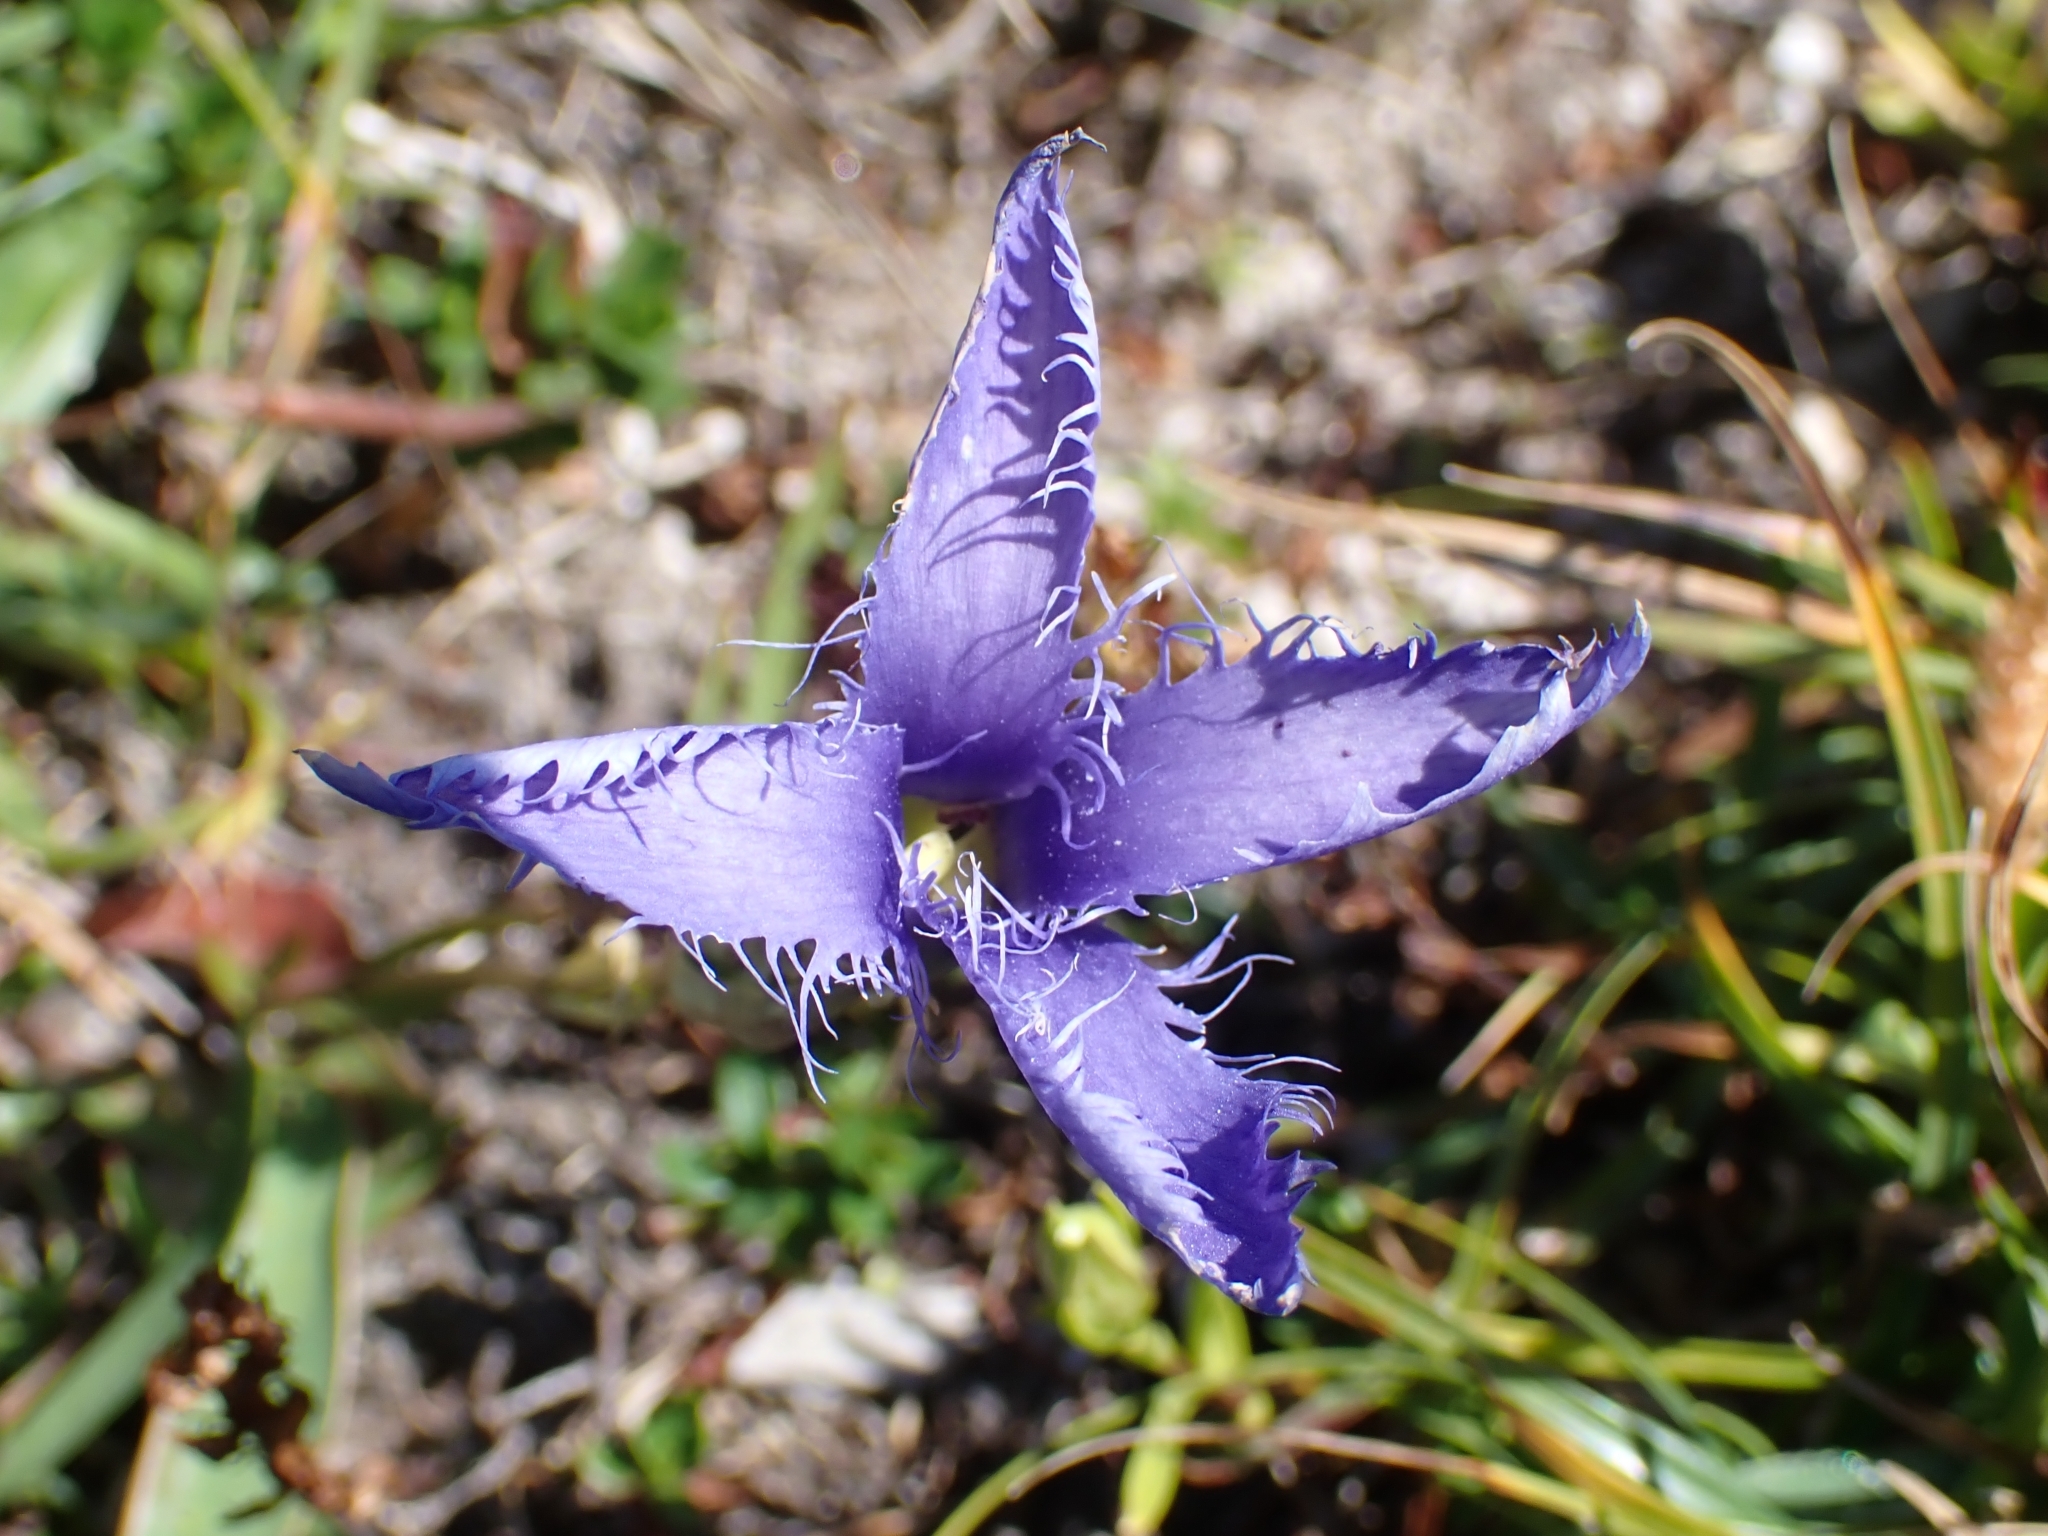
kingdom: Plantae
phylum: Tracheophyta
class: Magnoliopsida
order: Gentianales
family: Gentianaceae
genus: Gentianopsis
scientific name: Gentianopsis ciliata
